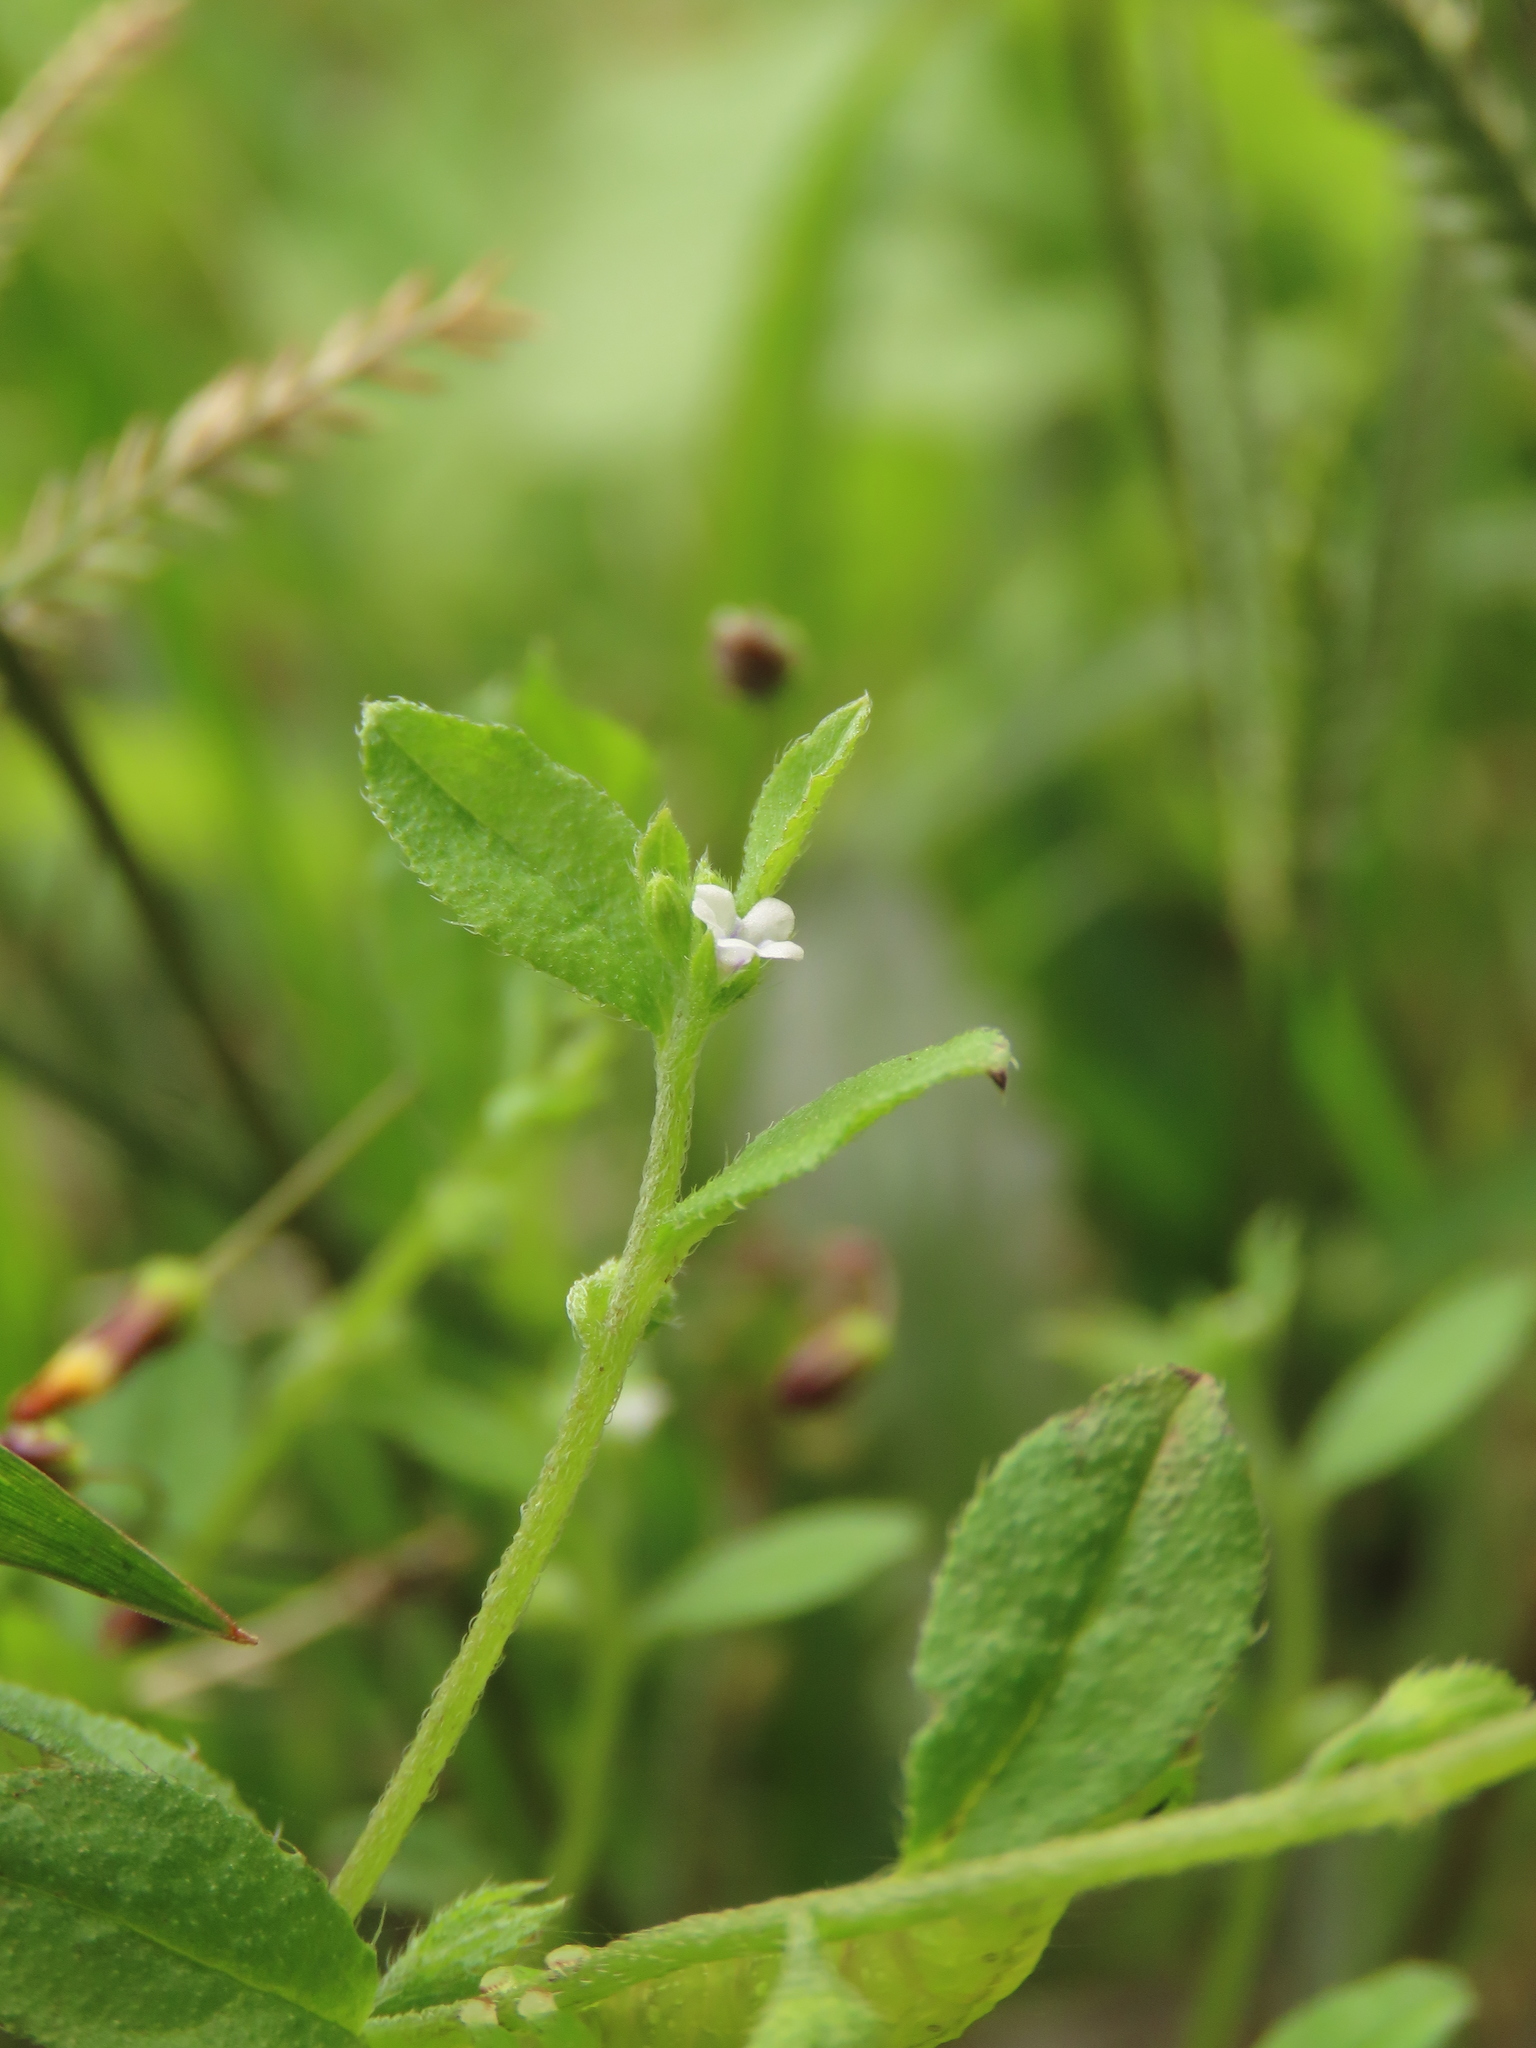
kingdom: Plantae
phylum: Tracheophyta
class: Magnoliopsida
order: Boraginales
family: Boraginaceae
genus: Bothriospermum
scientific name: Bothriospermum zeylanicum
